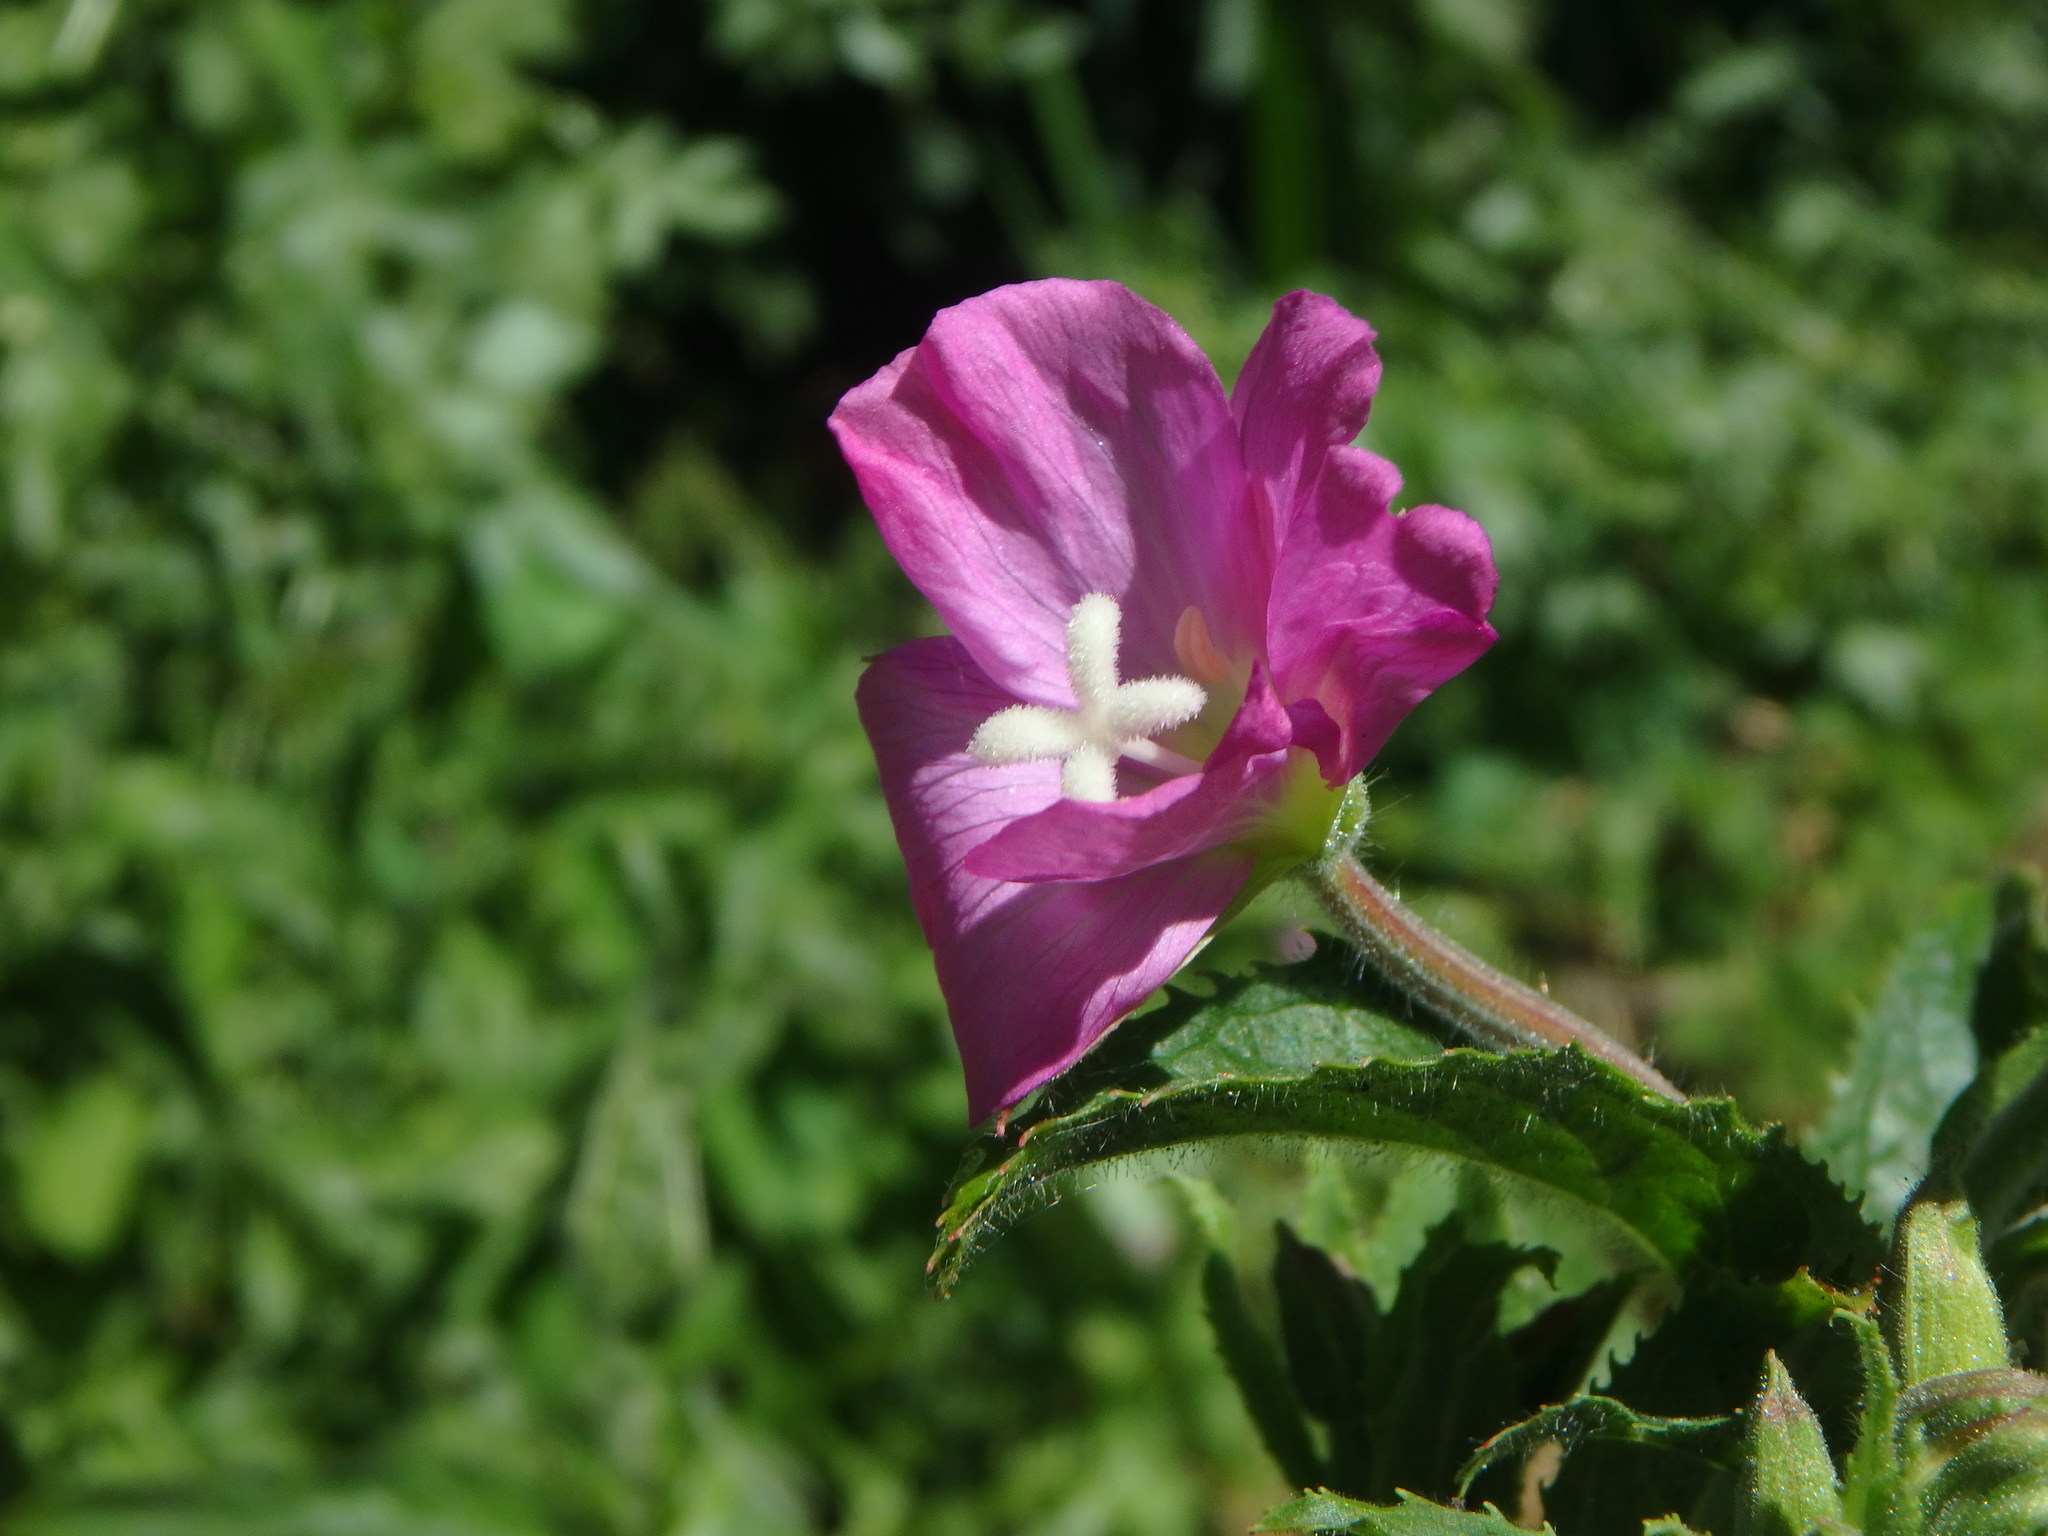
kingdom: Plantae
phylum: Tracheophyta
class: Magnoliopsida
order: Myrtales
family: Onagraceae
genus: Epilobium
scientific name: Epilobium hirsutum
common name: Great willowherb
